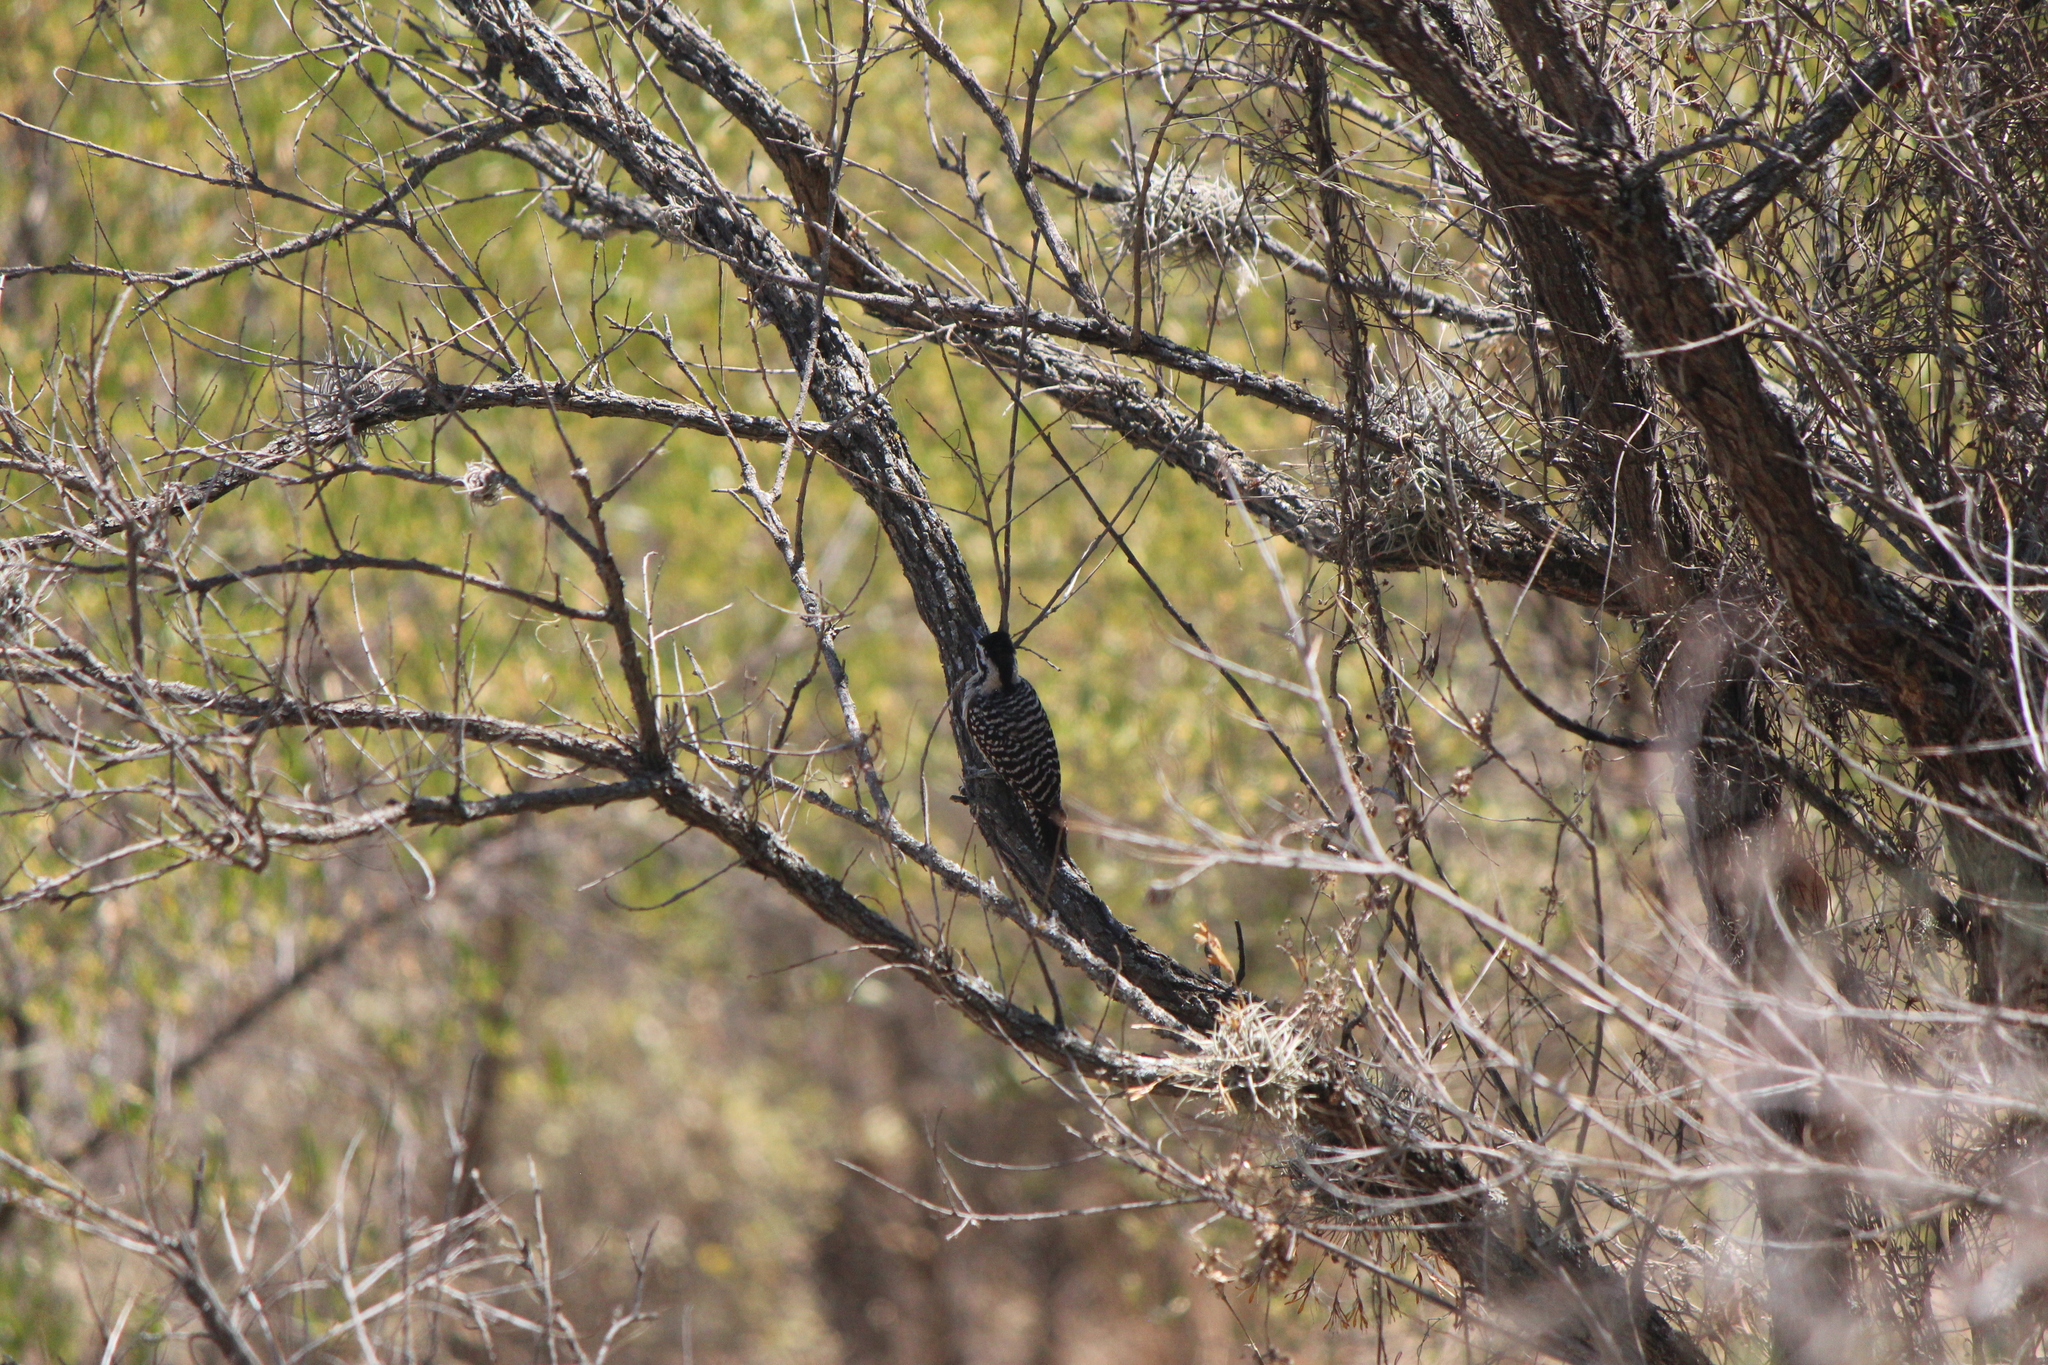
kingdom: Animalia
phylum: Chordata
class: Aves
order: Piciformes
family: Picidae
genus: Dryobates
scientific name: Dryobates scalaris
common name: Ladder-backed woodpecker
